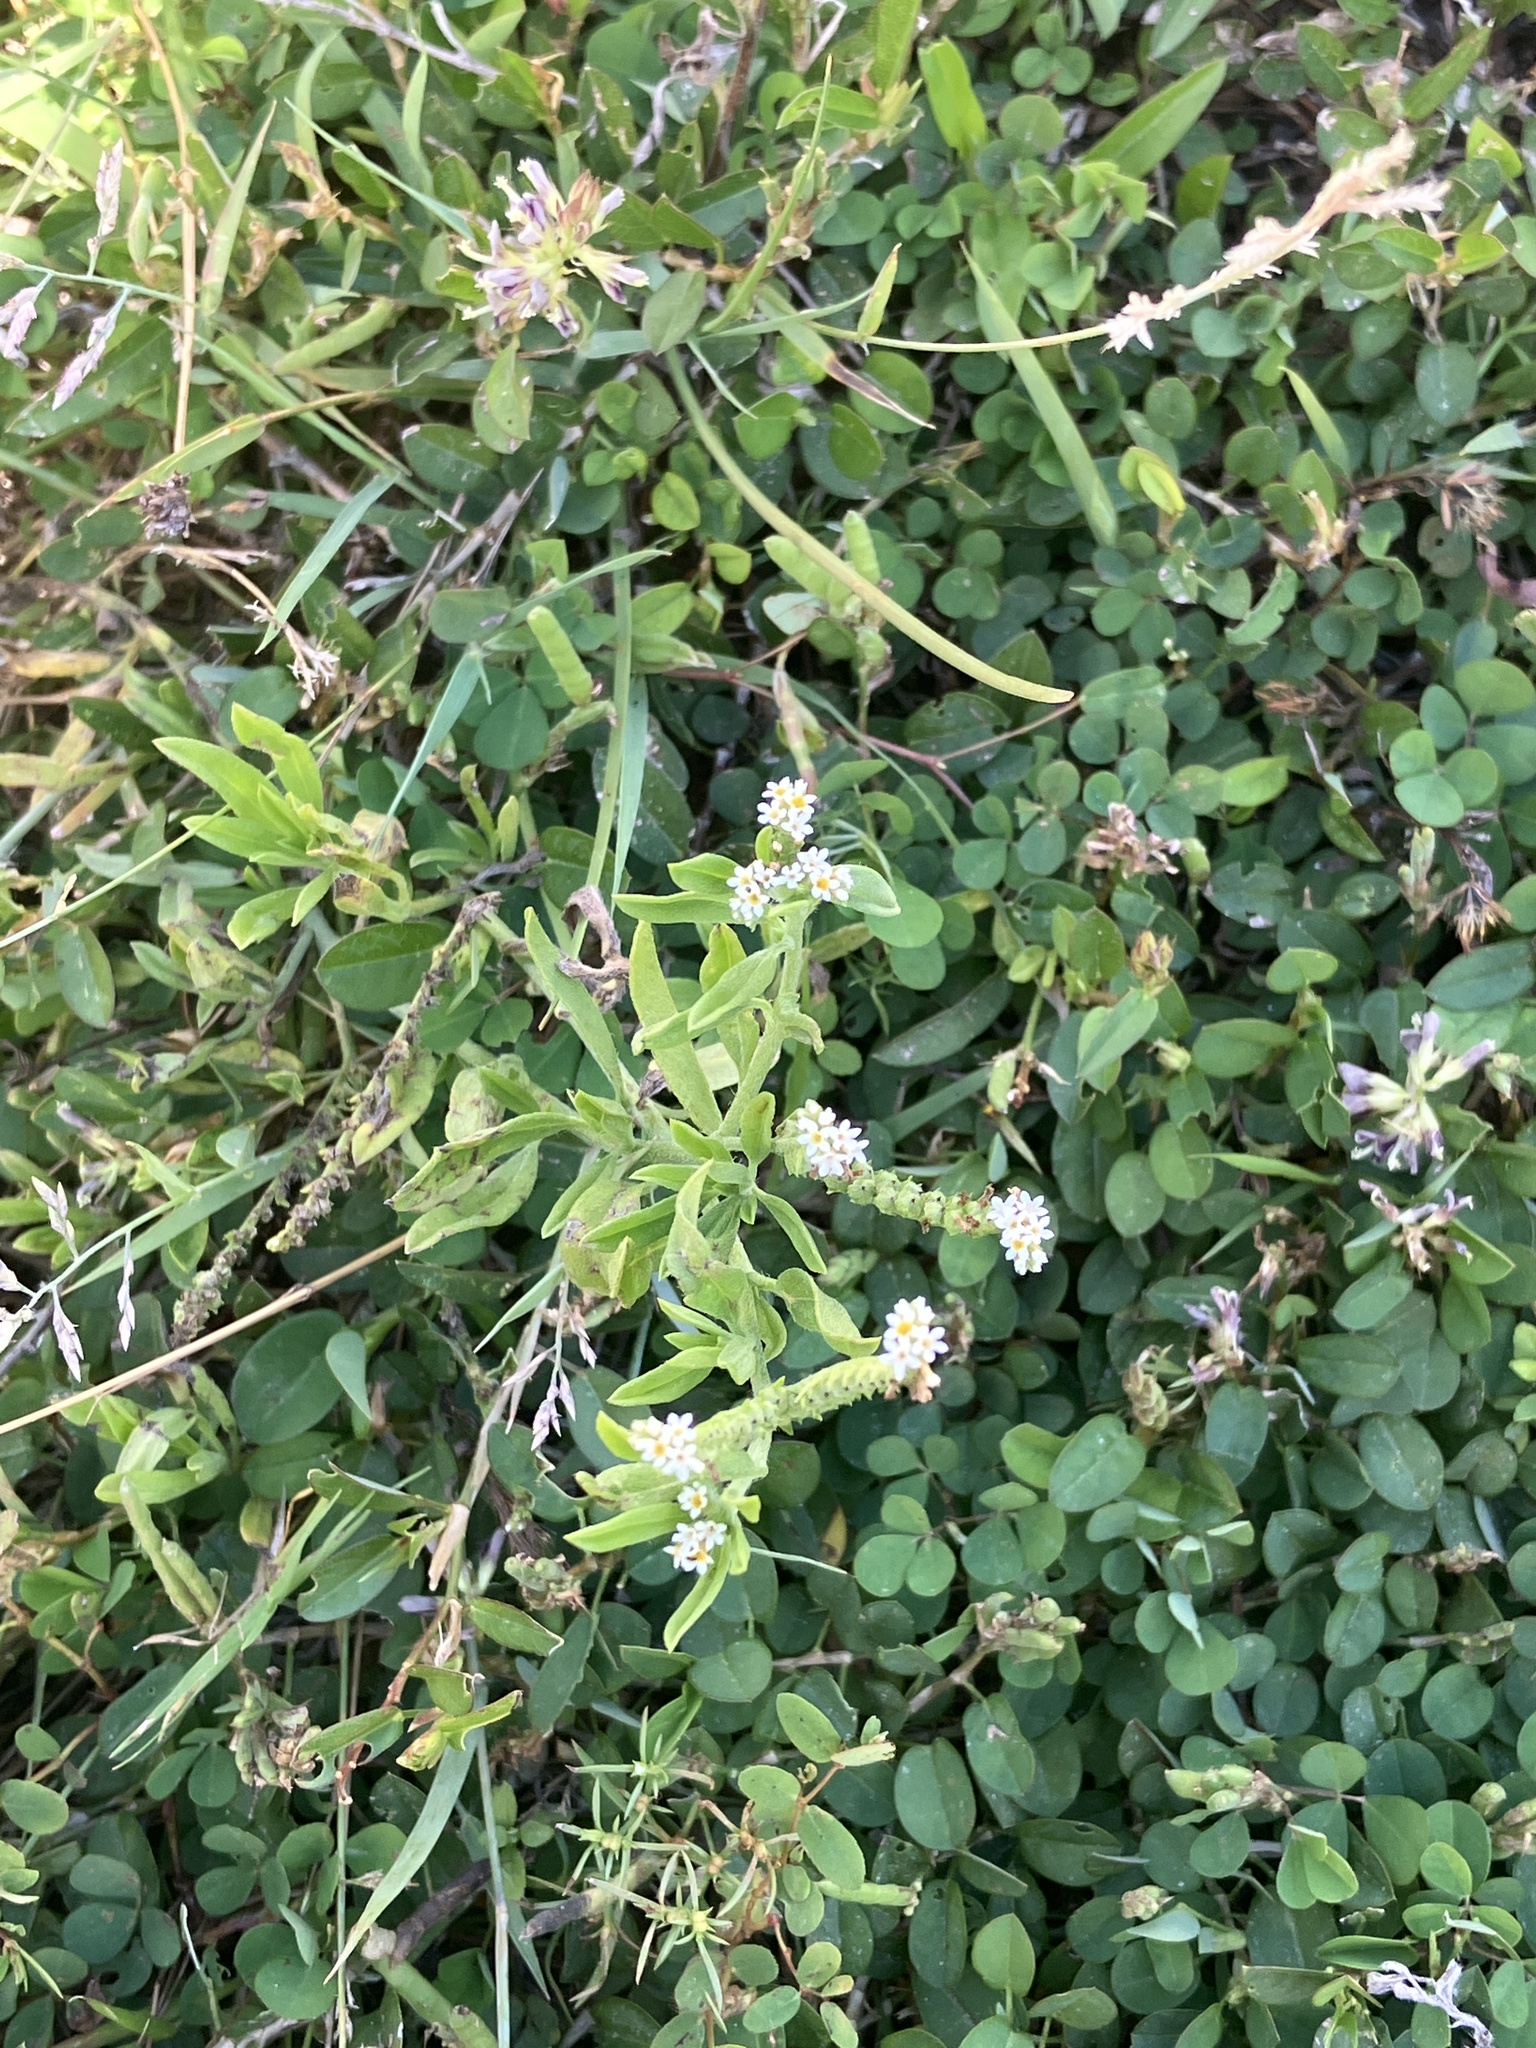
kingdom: Plantae
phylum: Tracheophyta
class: Magnoliopsida
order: Boraginales
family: Heliotropiaceae
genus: Euploca
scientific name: Euploca procumbens
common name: Fourspike heliotrope
